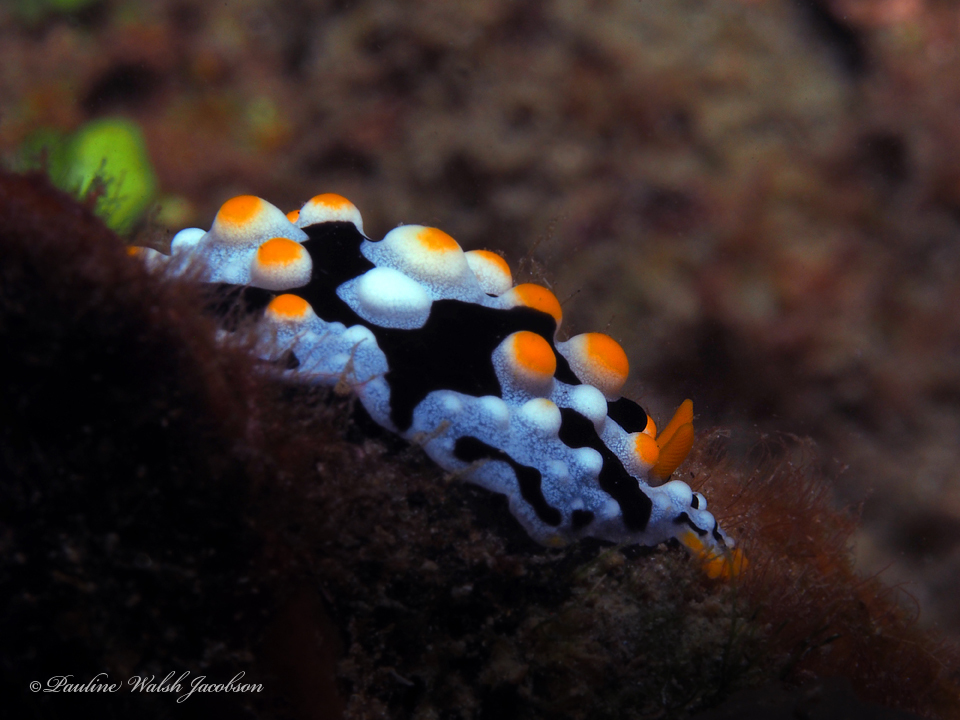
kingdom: Animalia
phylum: Mollusca
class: Gastropoda
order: Nudibranchia
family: Phyllidiidae
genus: Phyllidia
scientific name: Phyllidia exquisita
